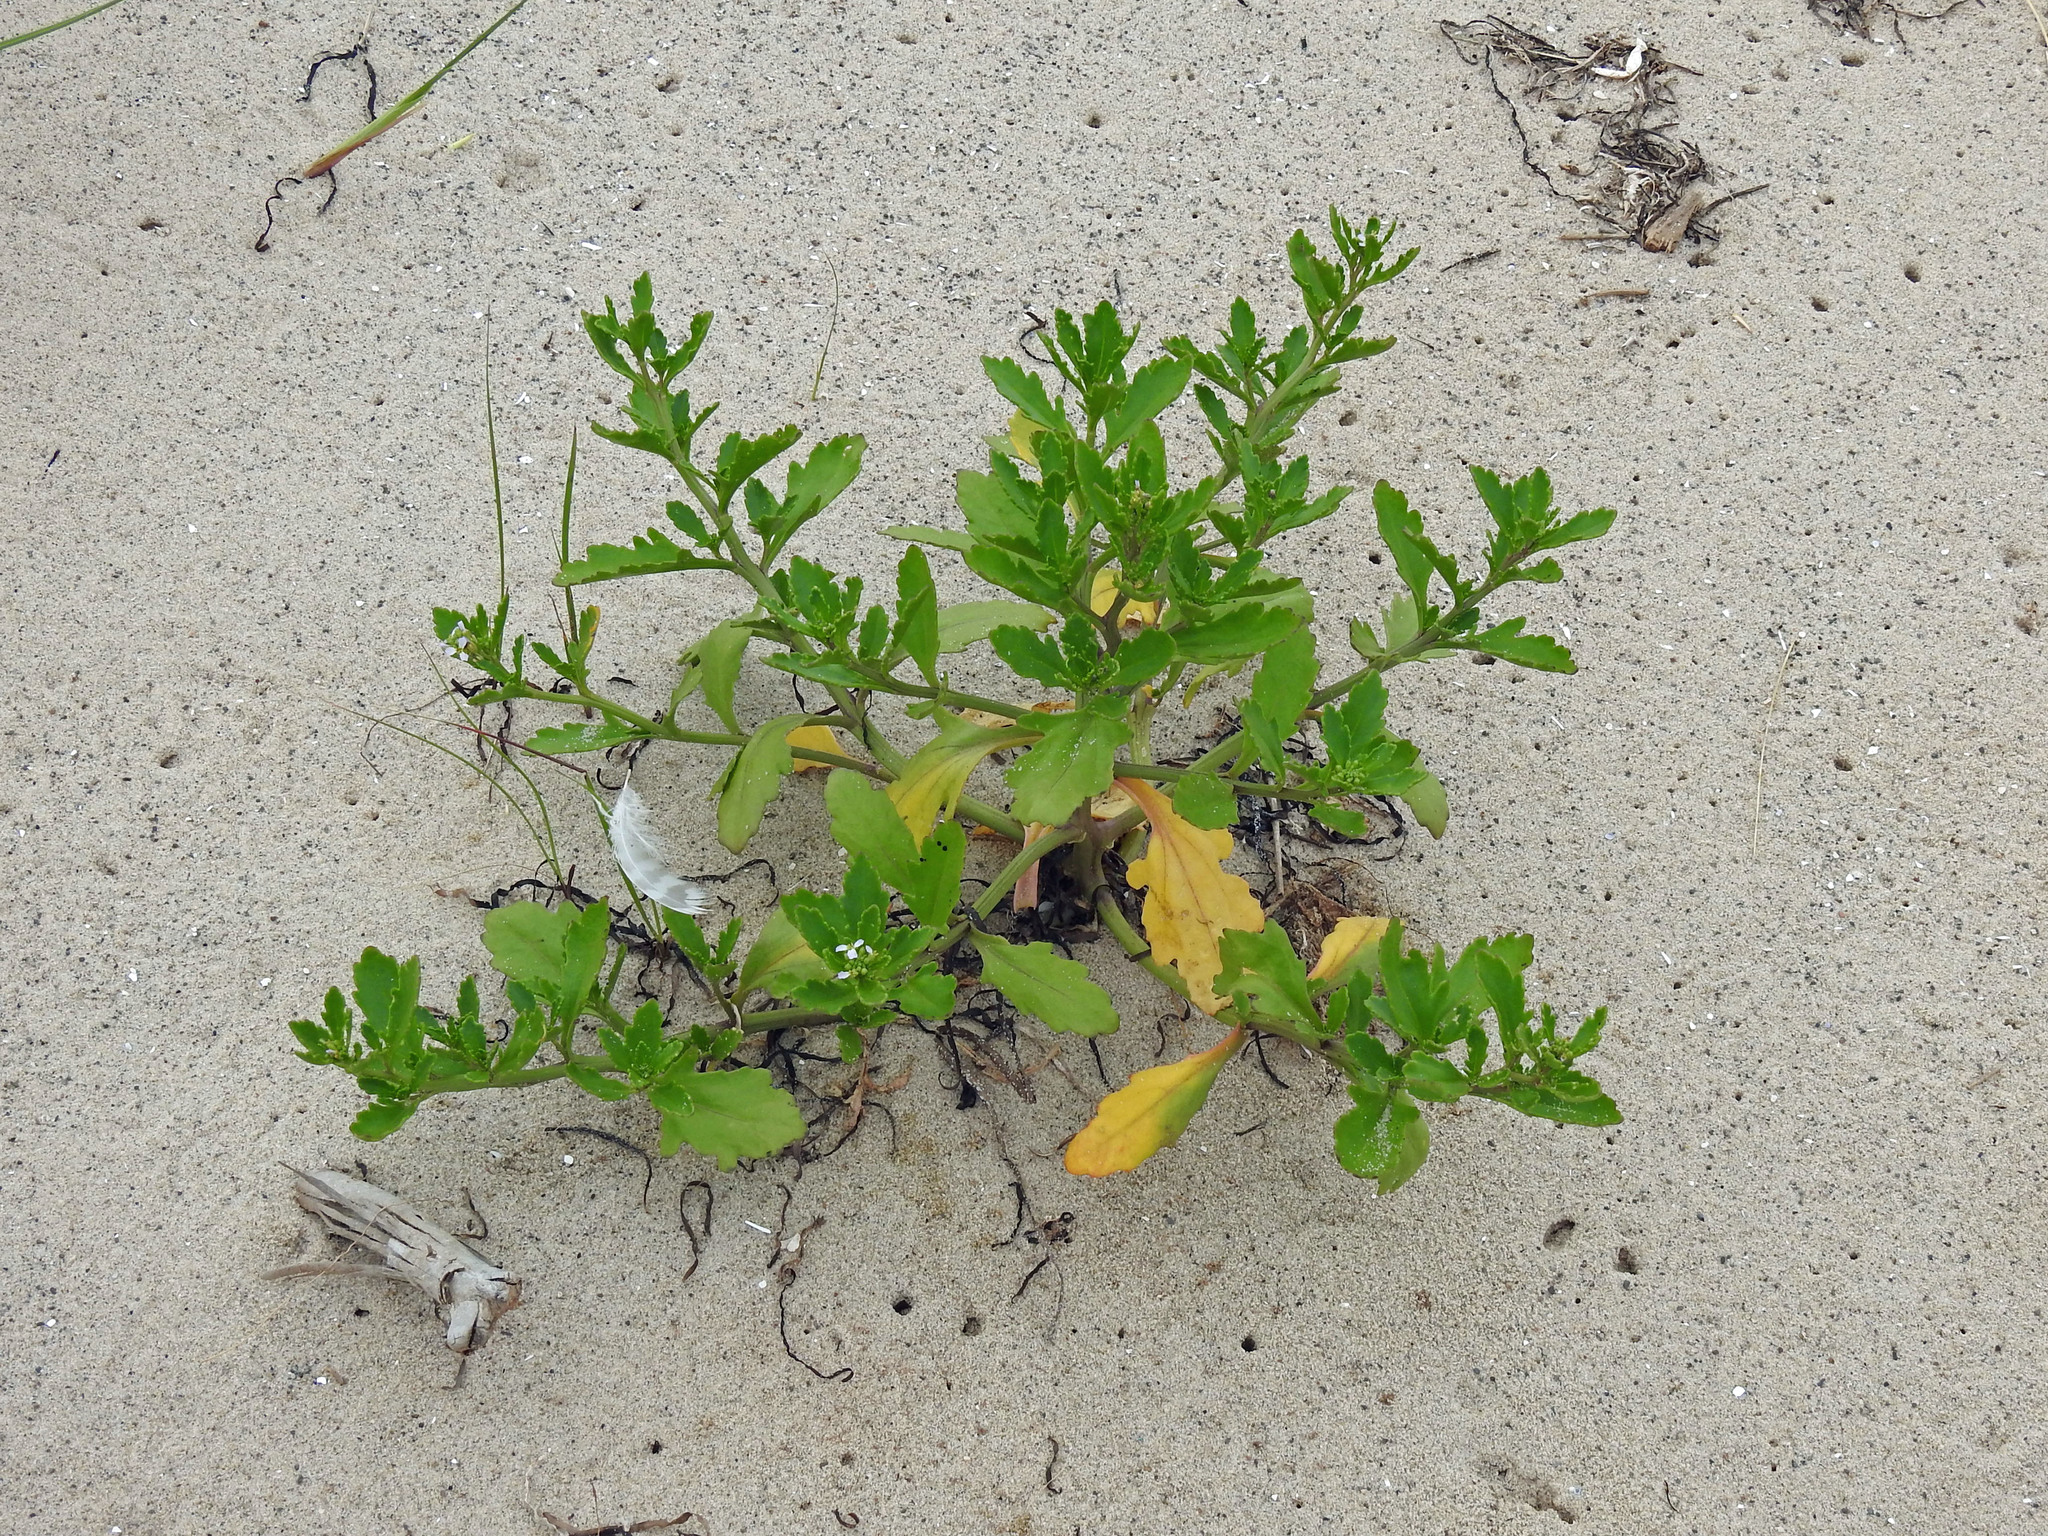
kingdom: Plantae
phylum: Tracheophyta
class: Magnoliopsida
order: Brassicales
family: Brassicaceae
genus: Cakile
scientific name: Cakile edentula
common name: American sea rocket
